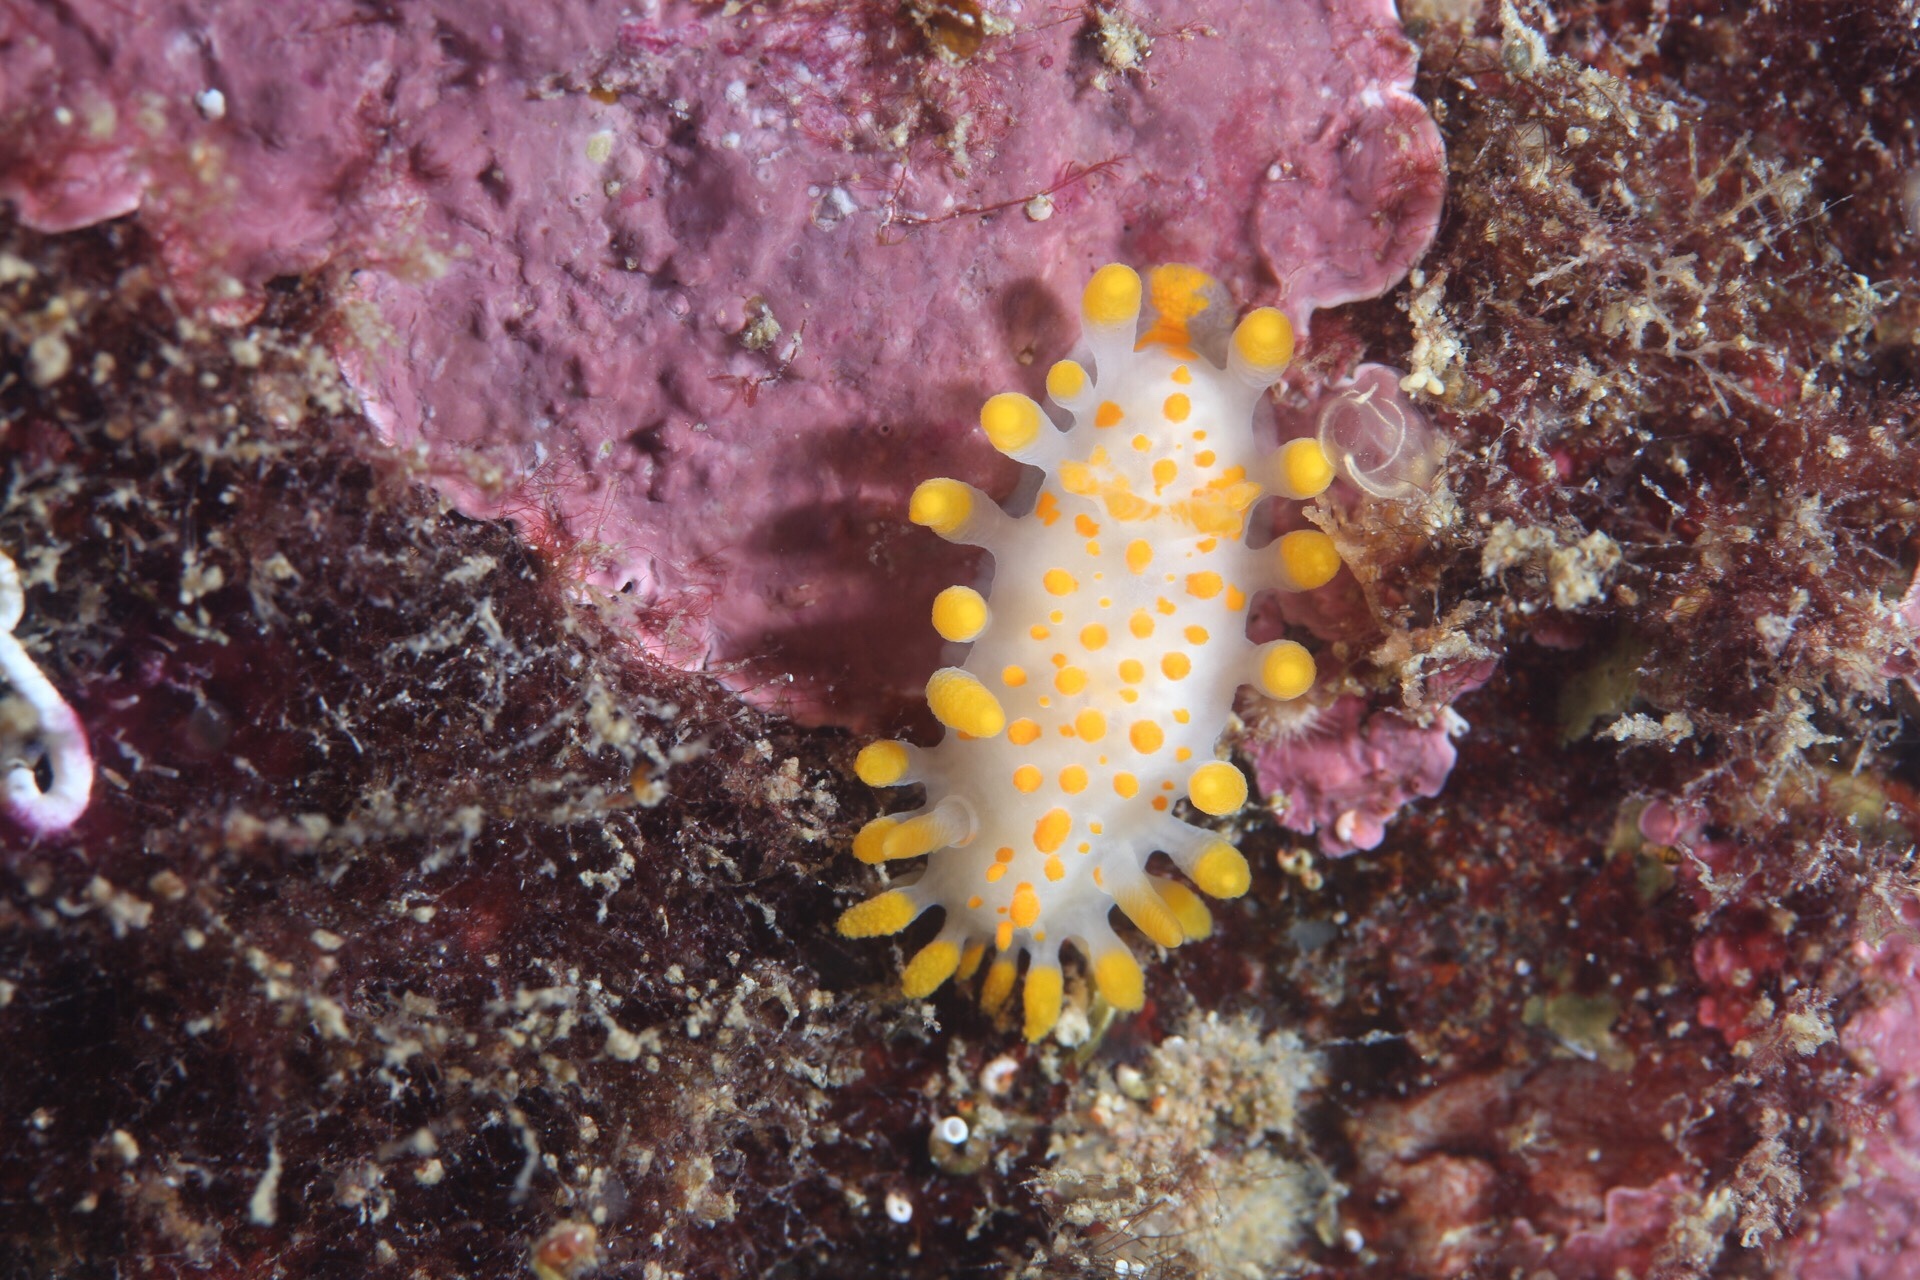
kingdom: Animalia
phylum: Mollusca
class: Gastropoda
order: Nudibranchia
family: Polyceridae
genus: Limacia
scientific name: Limacia clavigera
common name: Orange-clubbed sea slug
